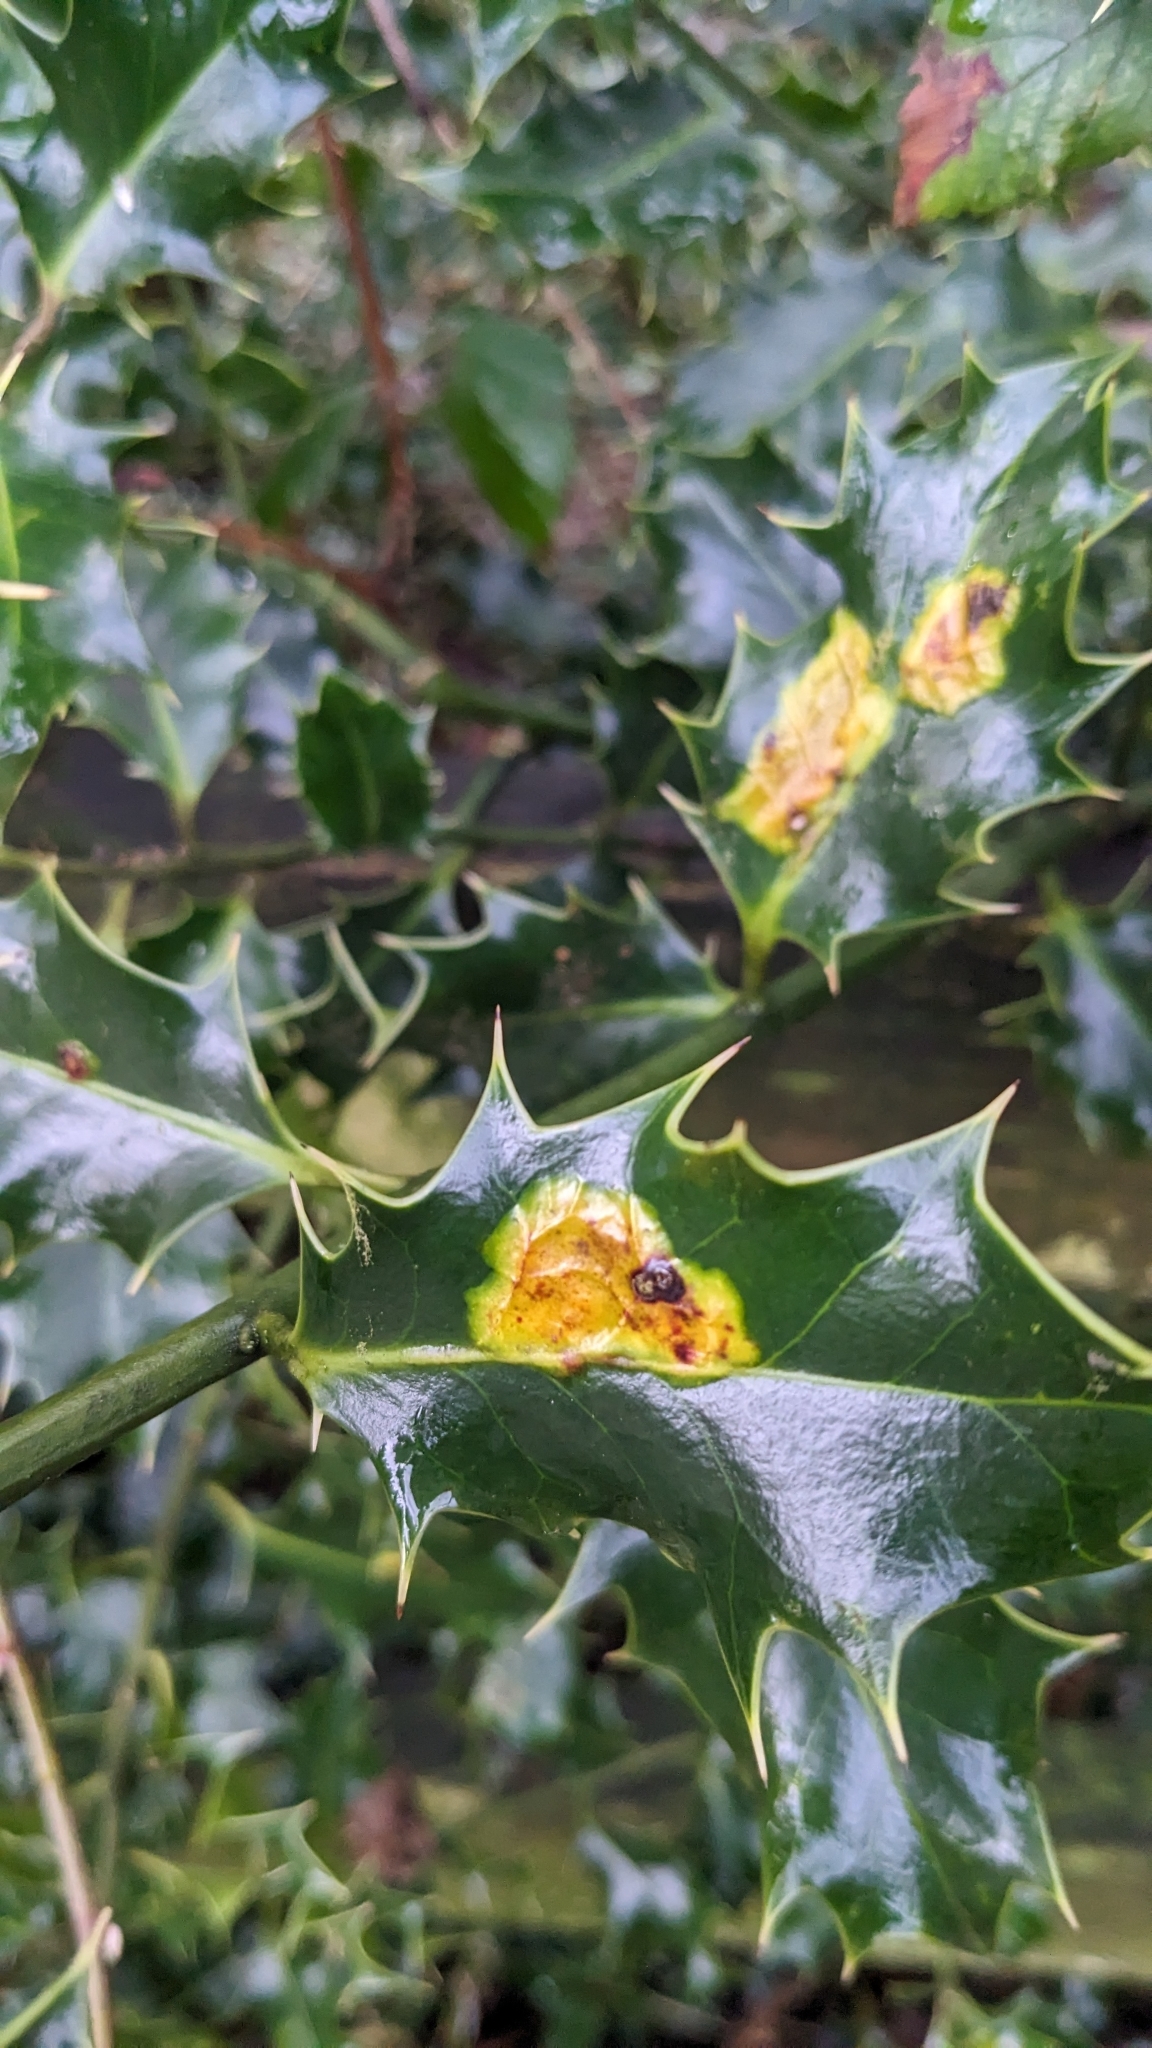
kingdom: Animalia
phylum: Arthropoda
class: Insecta
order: Diptera
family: Agromyzidae
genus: Phytomyza
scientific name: Phytomyza ilicis
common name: Holly leafminer
